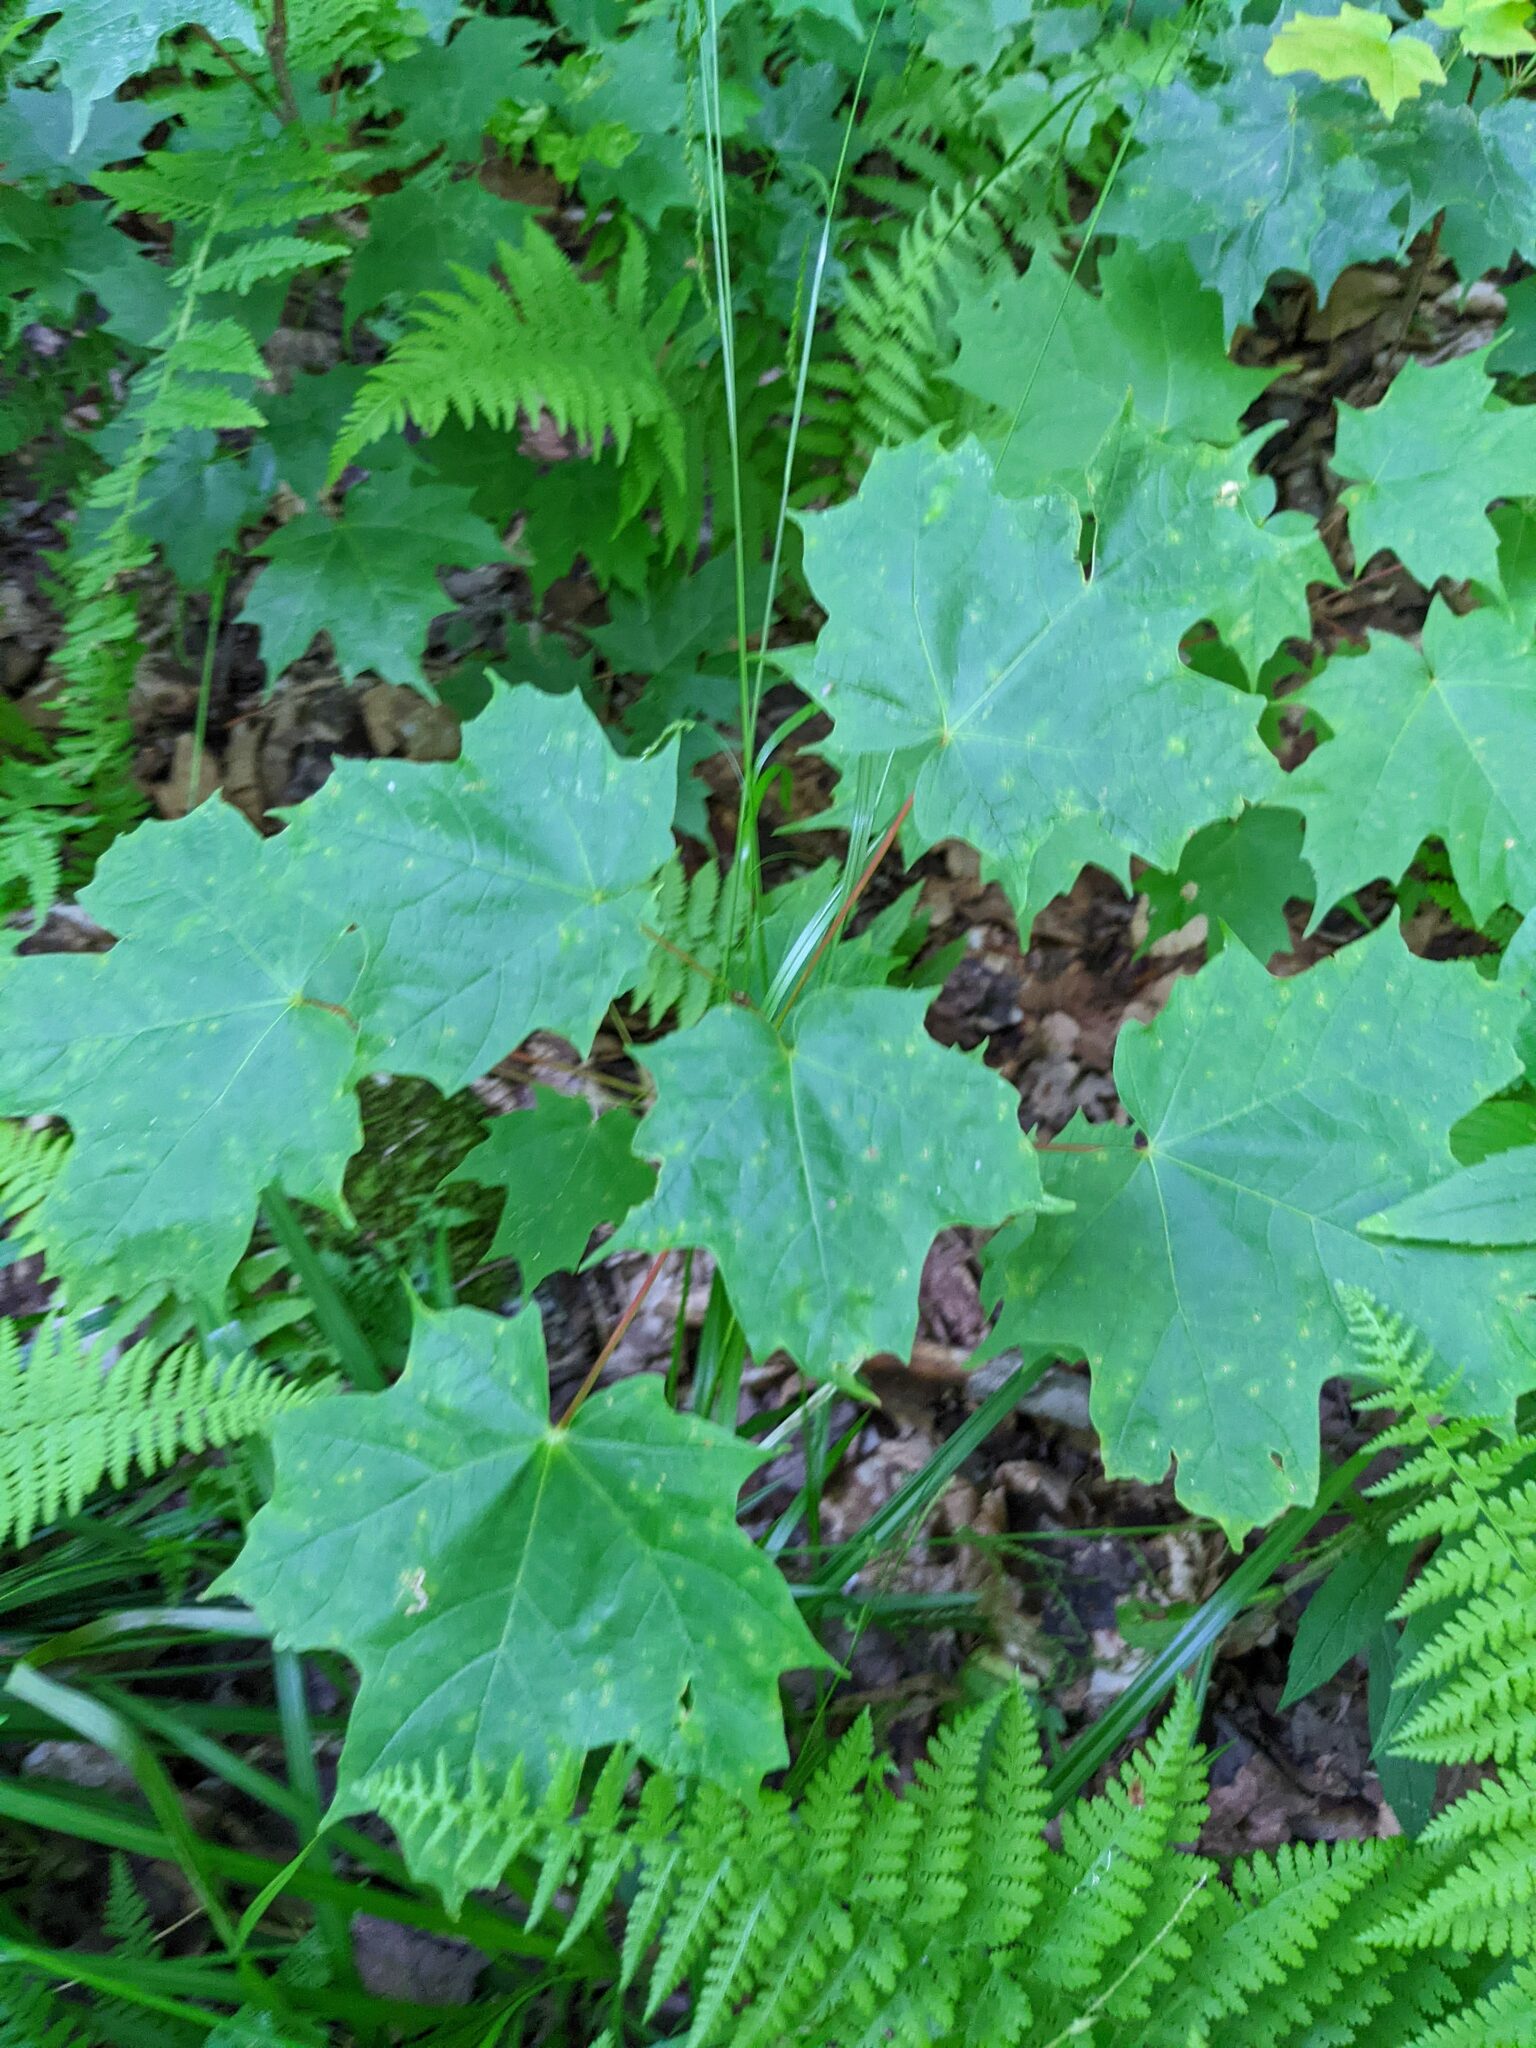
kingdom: Plantae
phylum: Tracheophyta
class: Magnoliopsida
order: Sapindales
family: Sapindaceae
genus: Acer
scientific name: Acer saccharum
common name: Sugar maple
